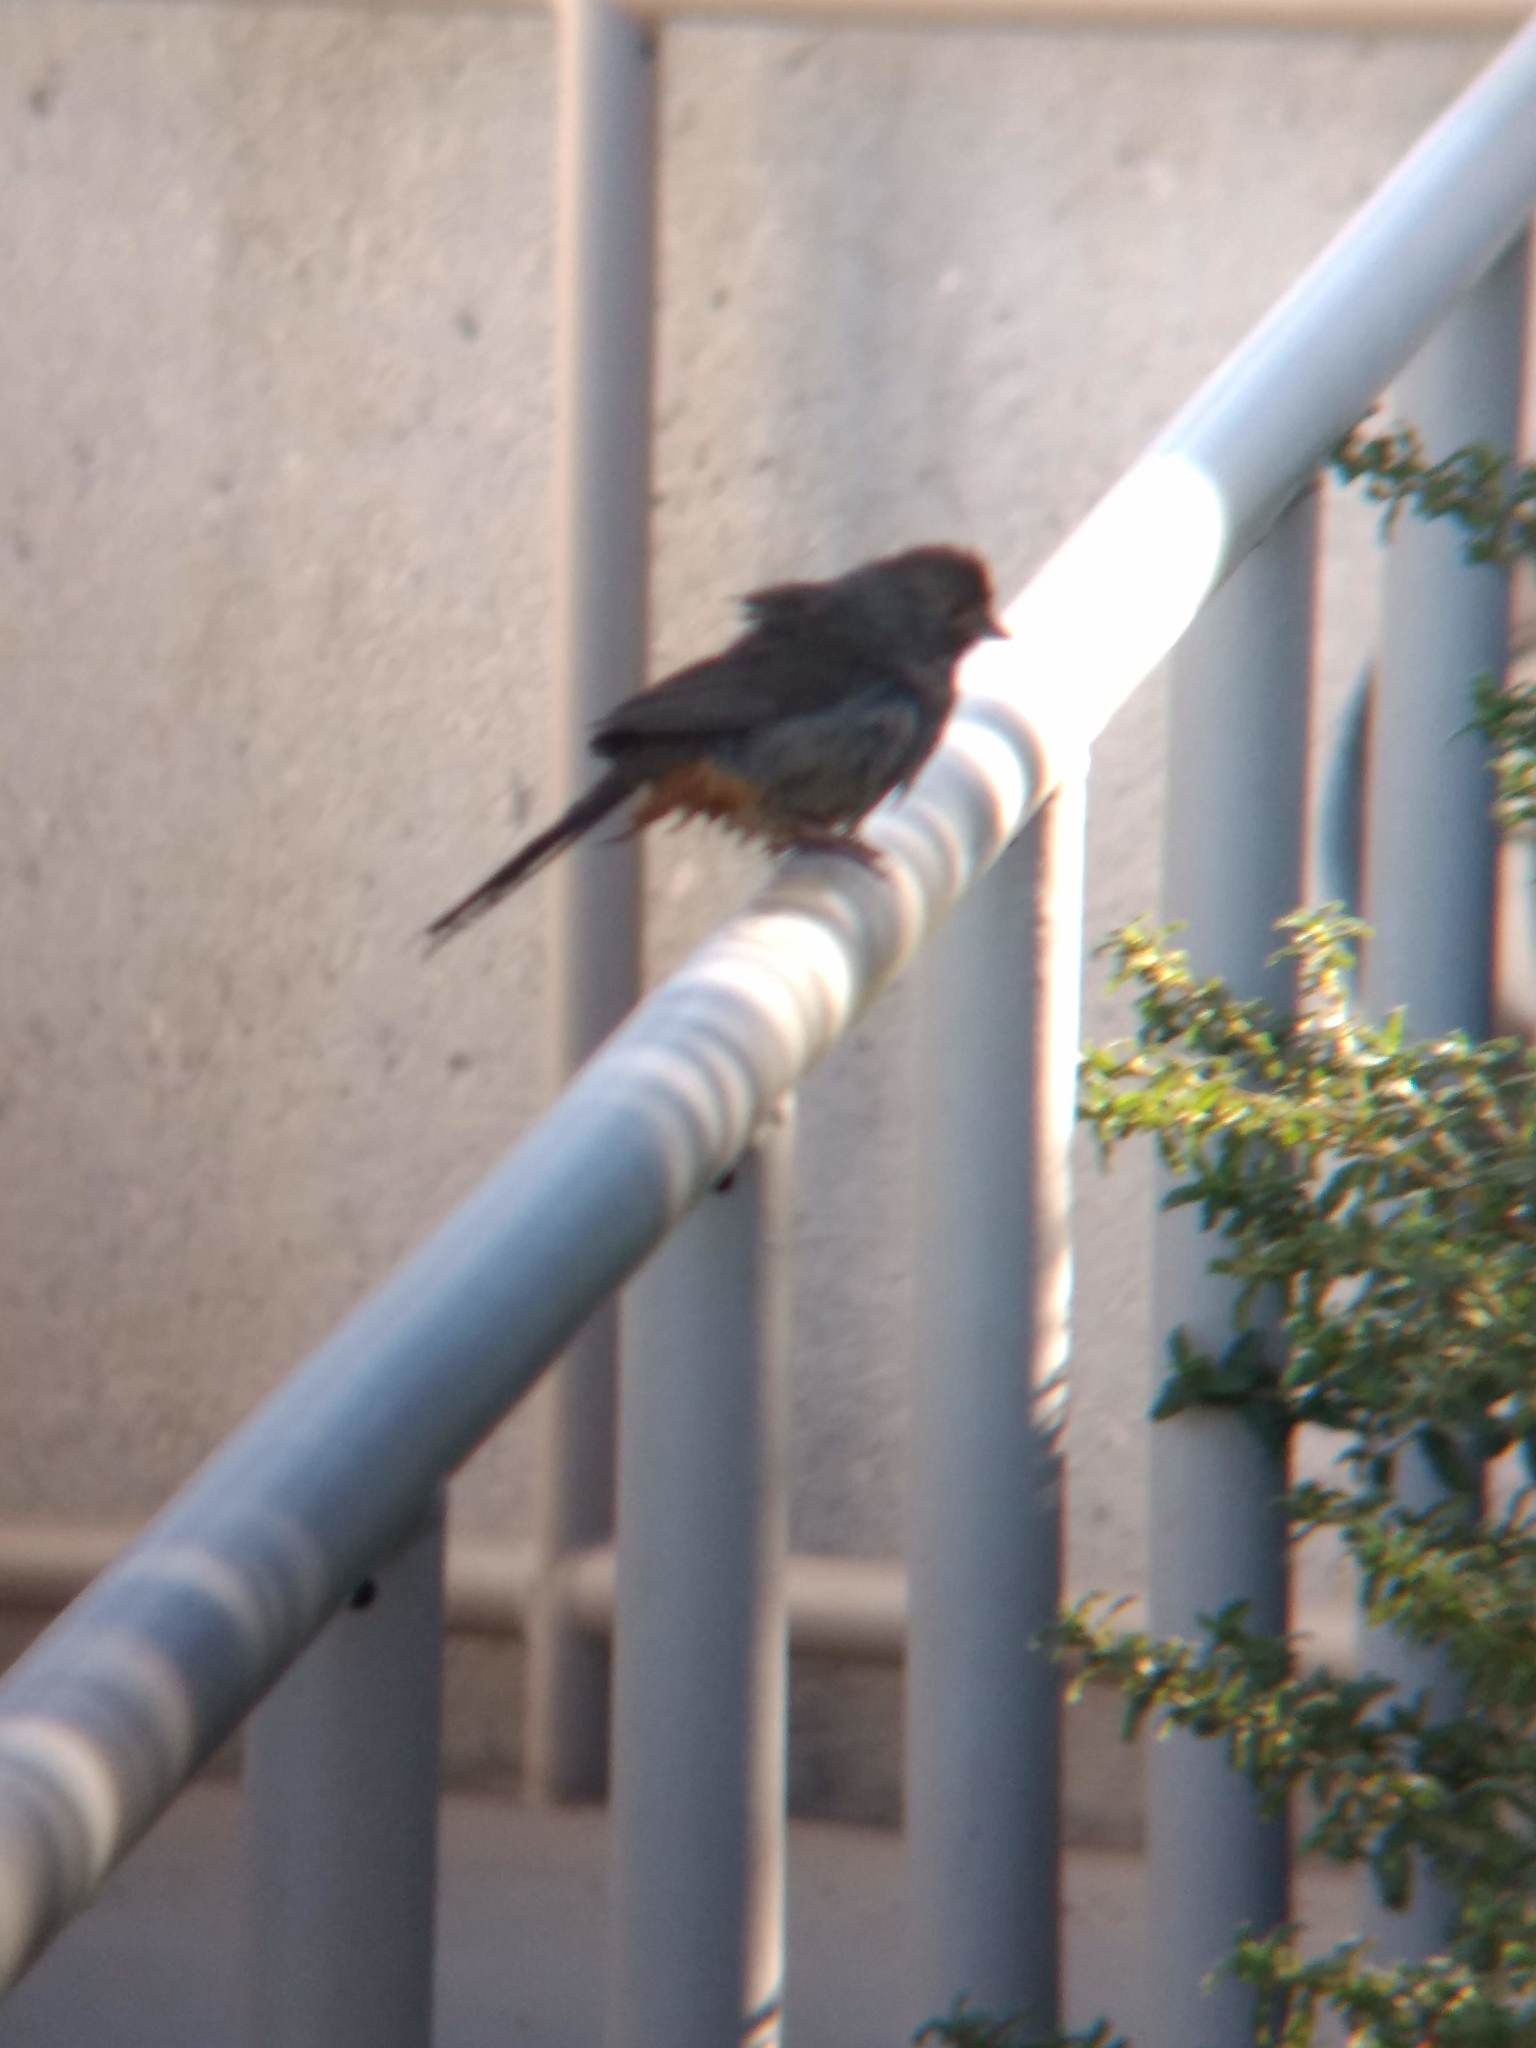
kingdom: Animalia
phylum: Chordata
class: Aves
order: Passeriformes
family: Passerellidae
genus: Melozone
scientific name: Melozone crissalis
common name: California towhee
